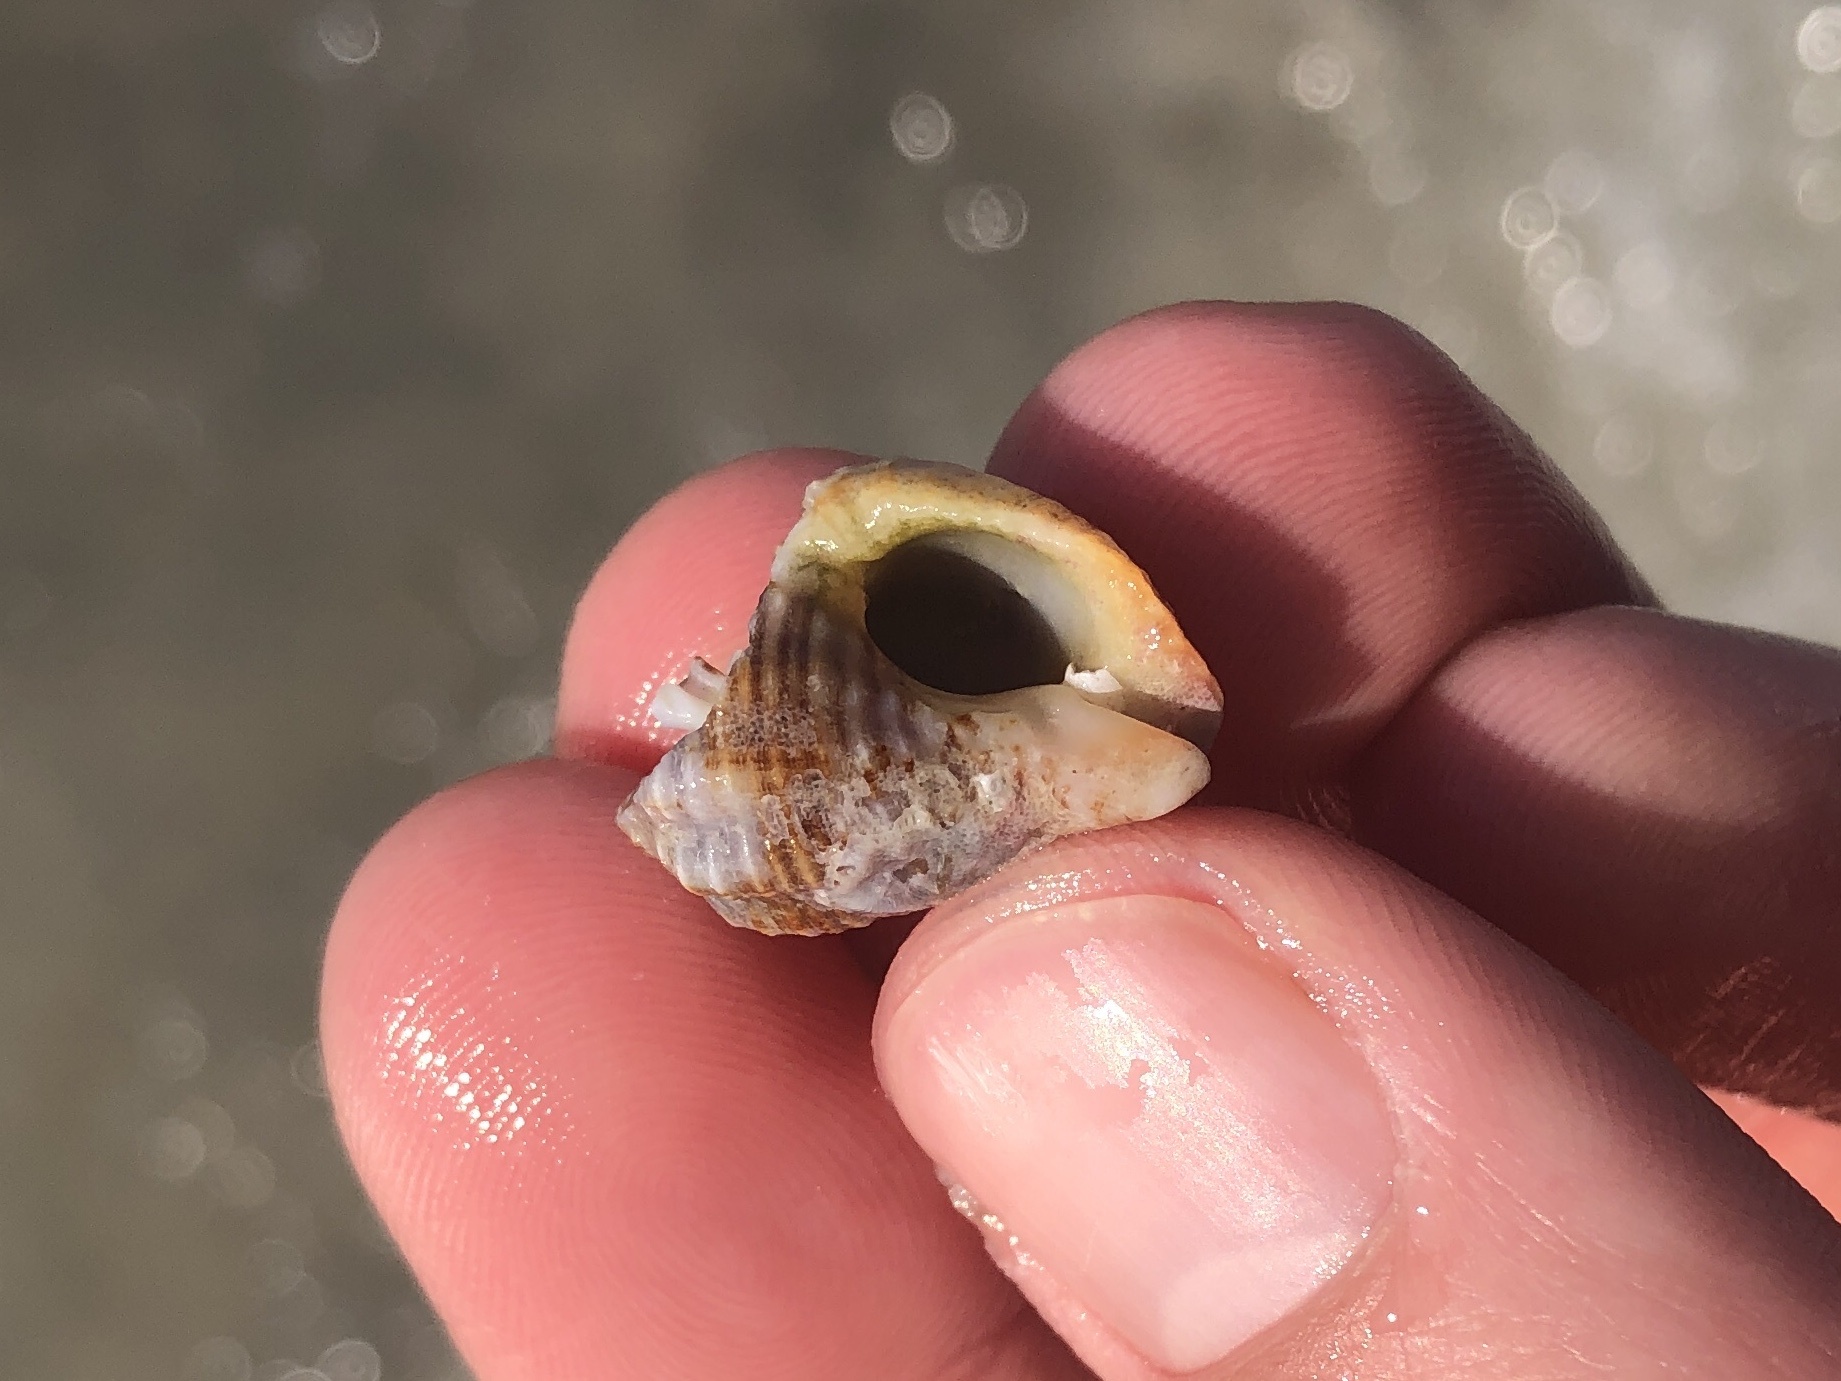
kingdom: Animalia
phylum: Mollusca
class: Gastropoda
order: Neogastropoda
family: Pisaniidae
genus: Gemophos
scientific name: Gemophos tinctus
